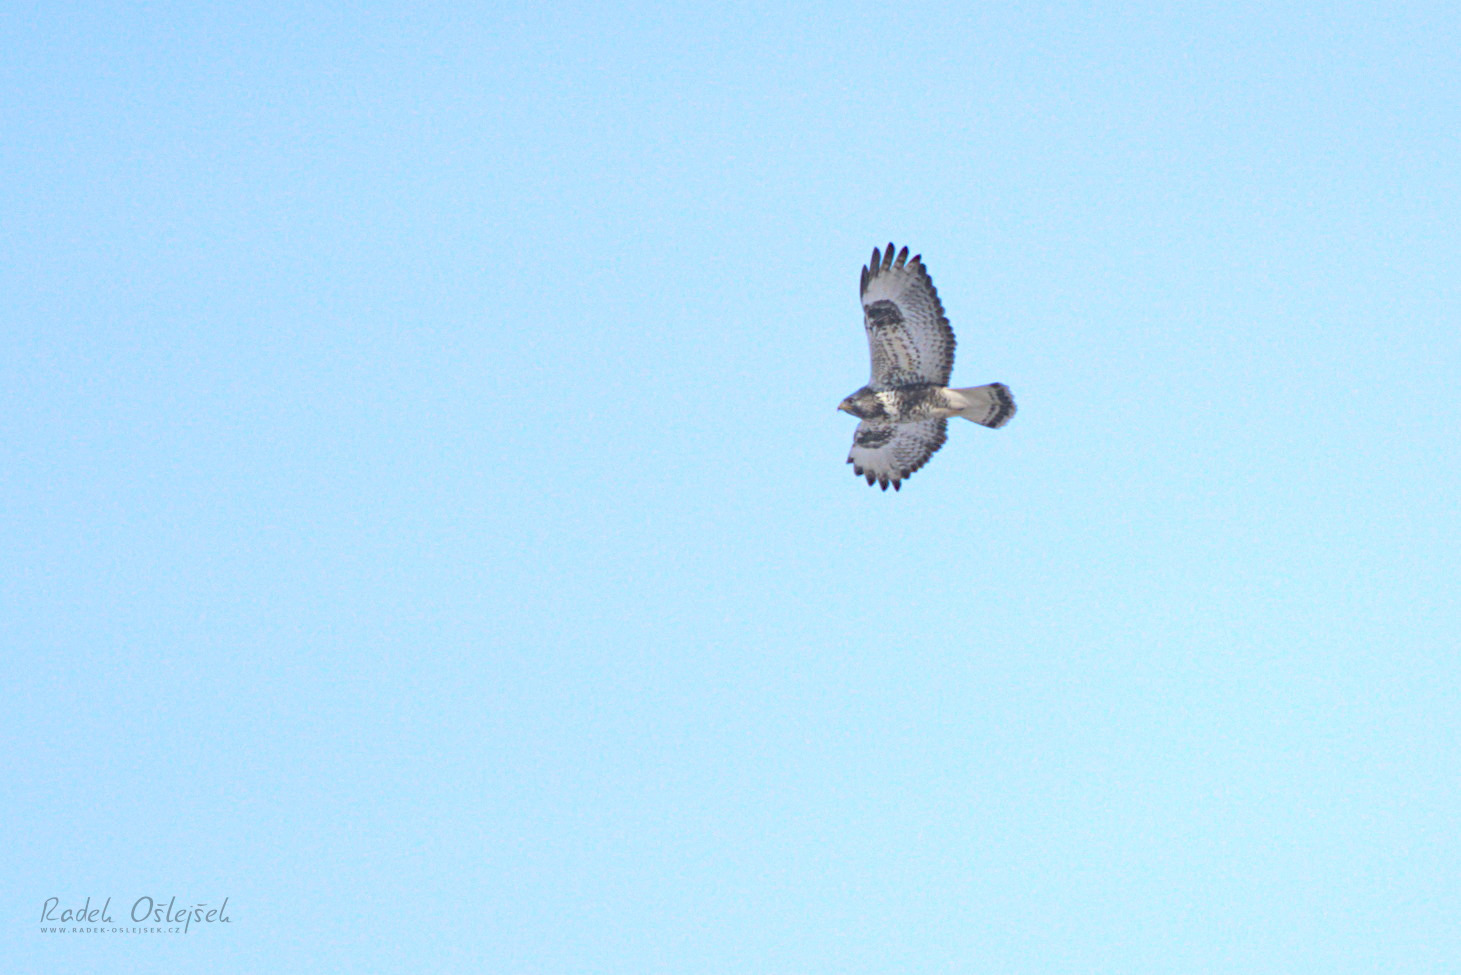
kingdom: Animalia
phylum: Chordata
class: Aves
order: Accipitriformes
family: Accipitridae
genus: Buteo
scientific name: Buteo lagopus
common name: Rough-legged buzzard
